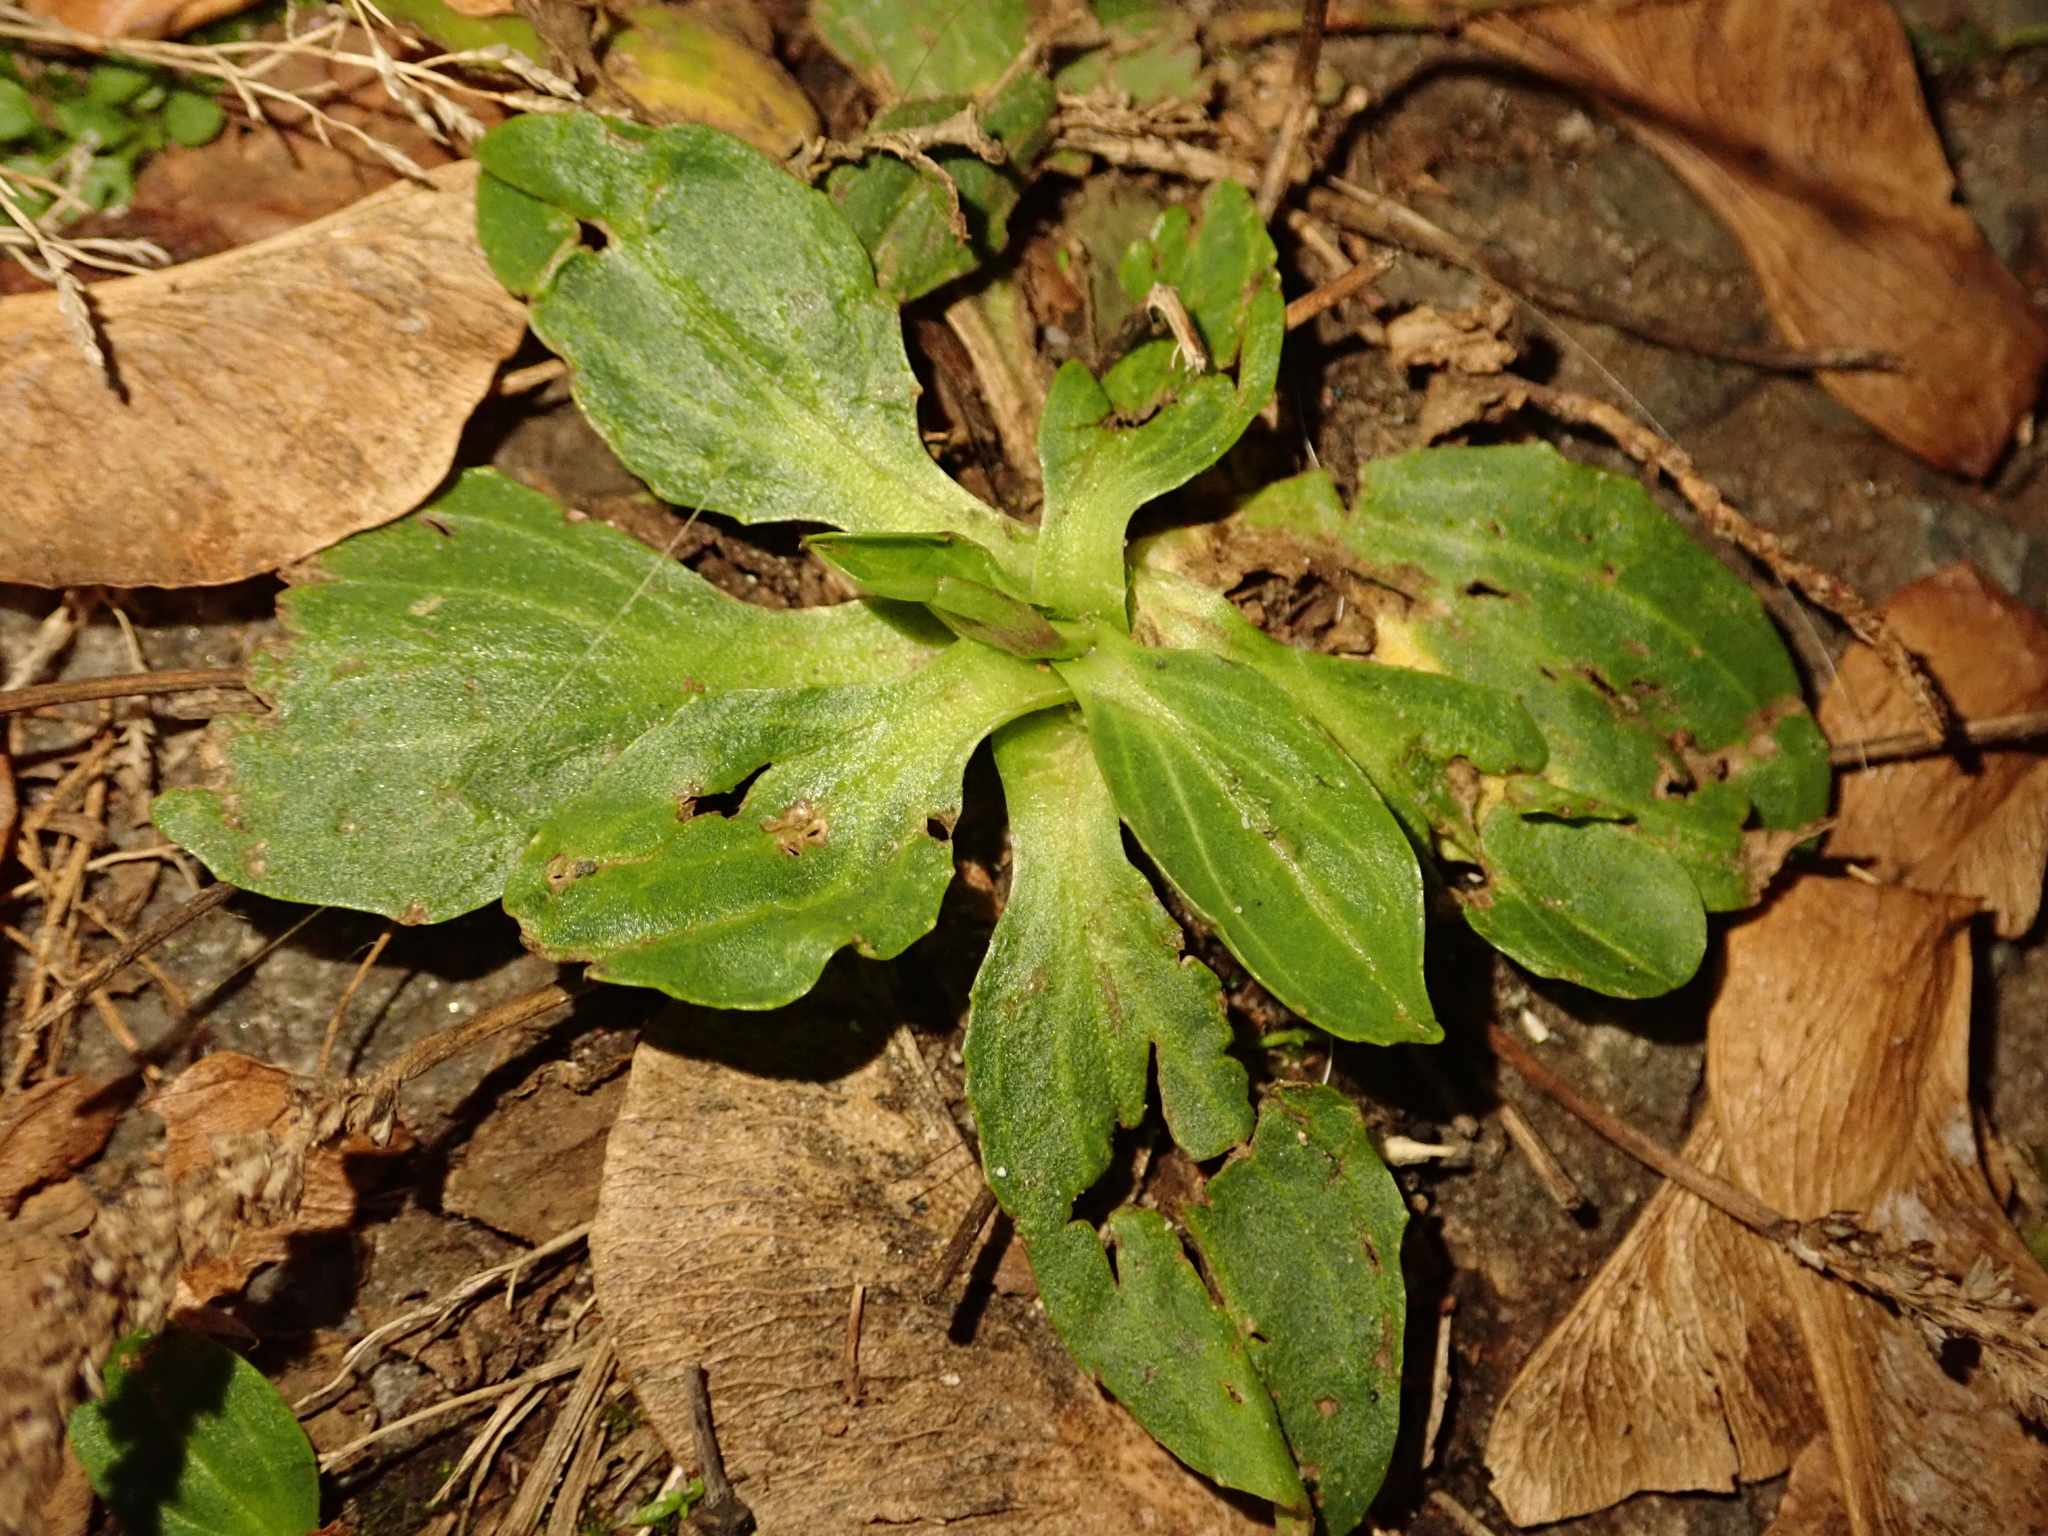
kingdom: Plantae
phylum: Tracheophyta
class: Magnoliopsida
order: Lamiales
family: Plantaginaceae
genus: Plantago
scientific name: Plantago major
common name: Common plantain
